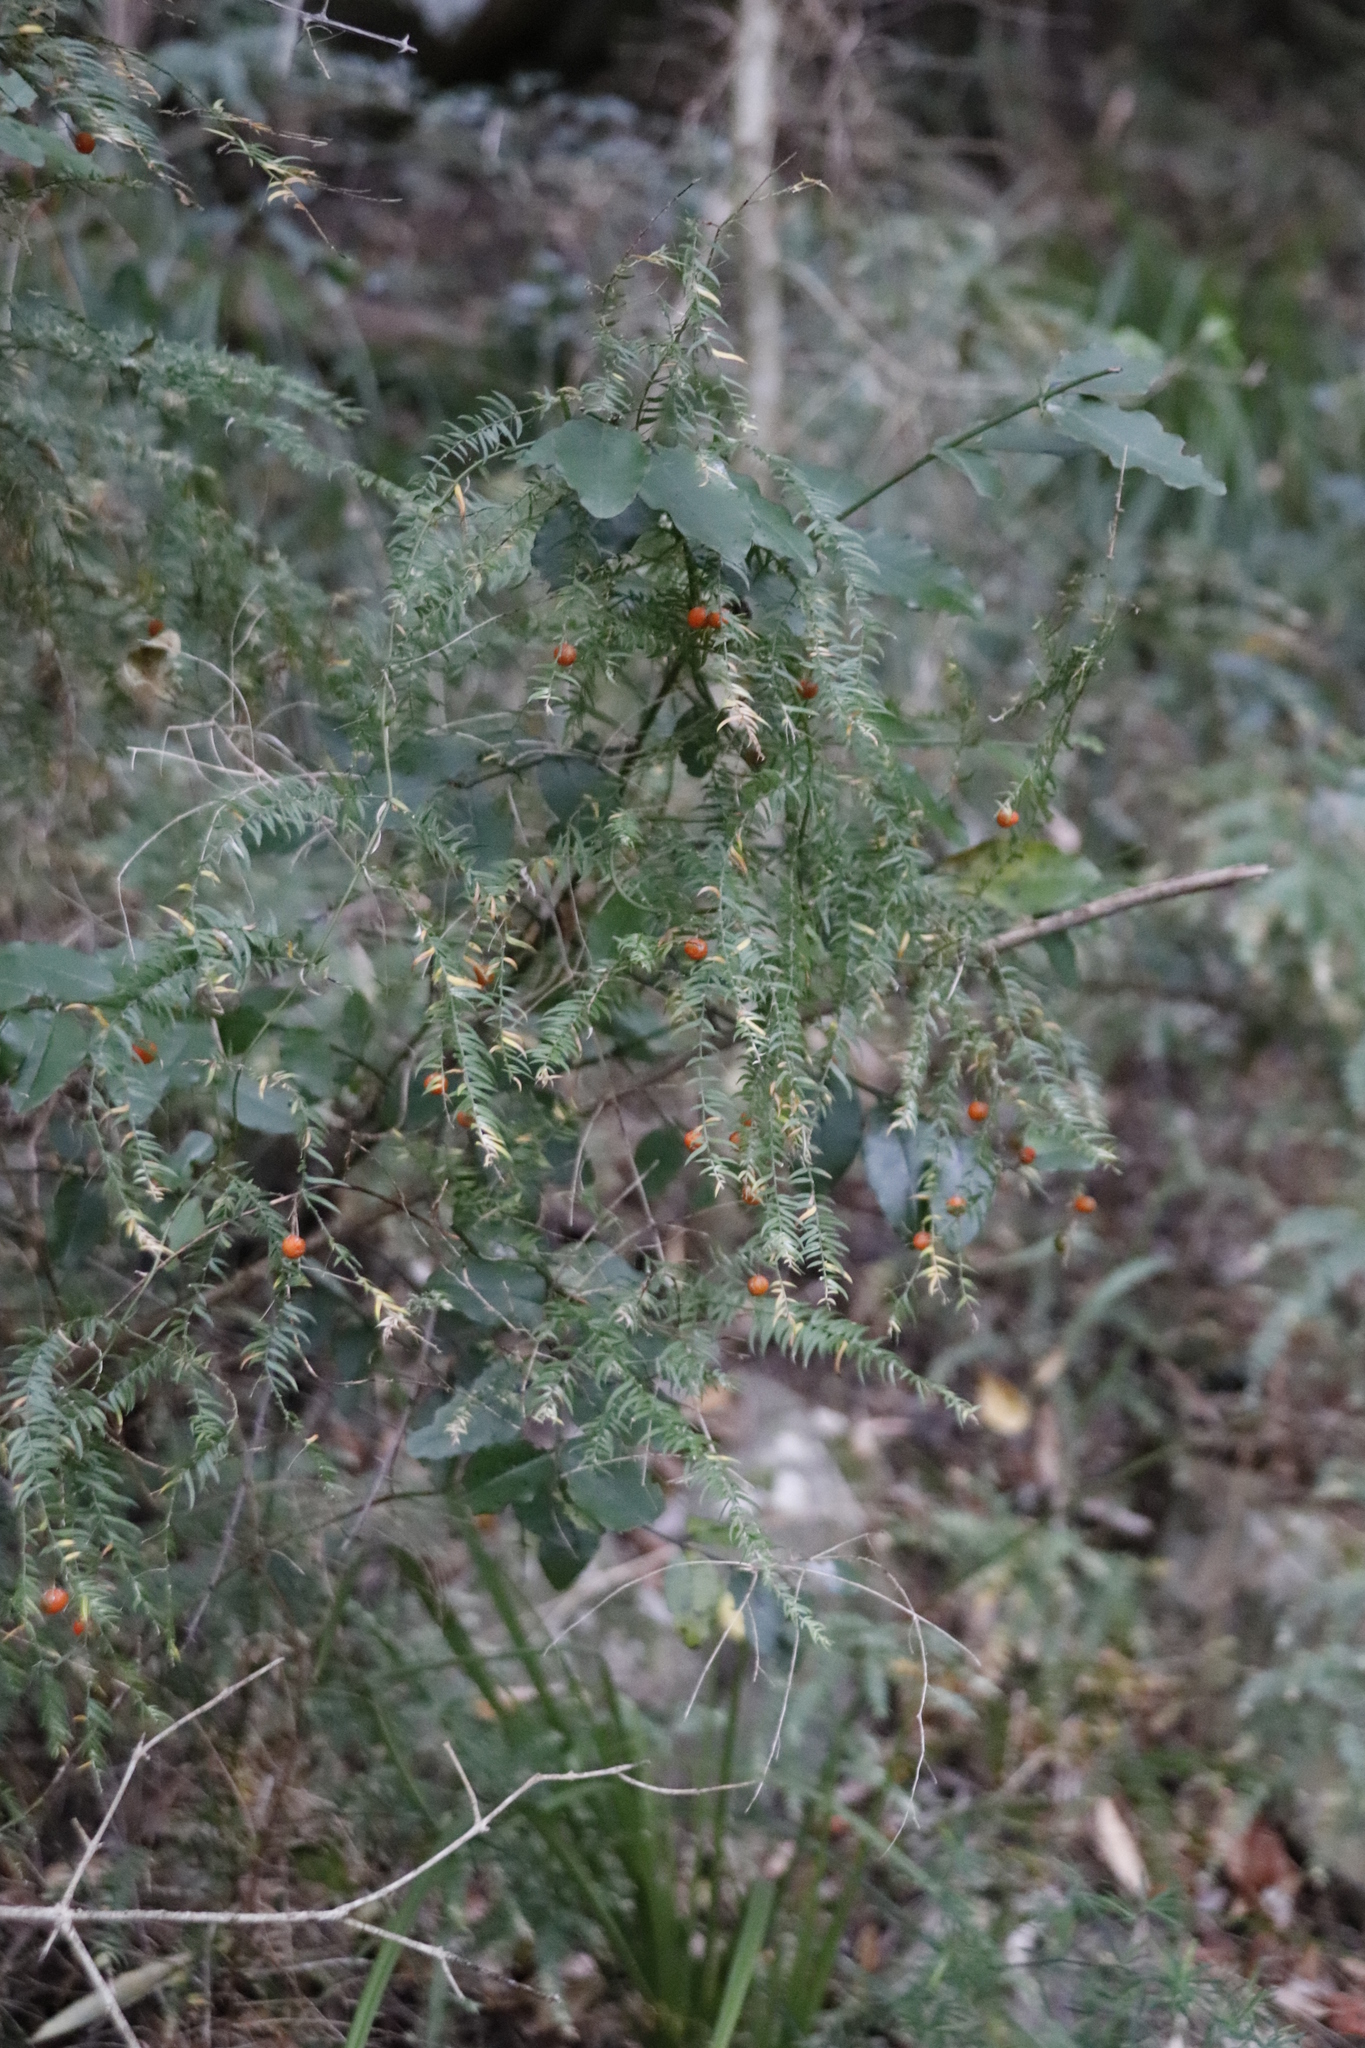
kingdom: Plantae
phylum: Tracheophyta
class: Liliopsida
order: Asparagales
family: Asparagaceae
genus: Asparagus
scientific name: Asparagus scandens
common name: Asparagus-fern
